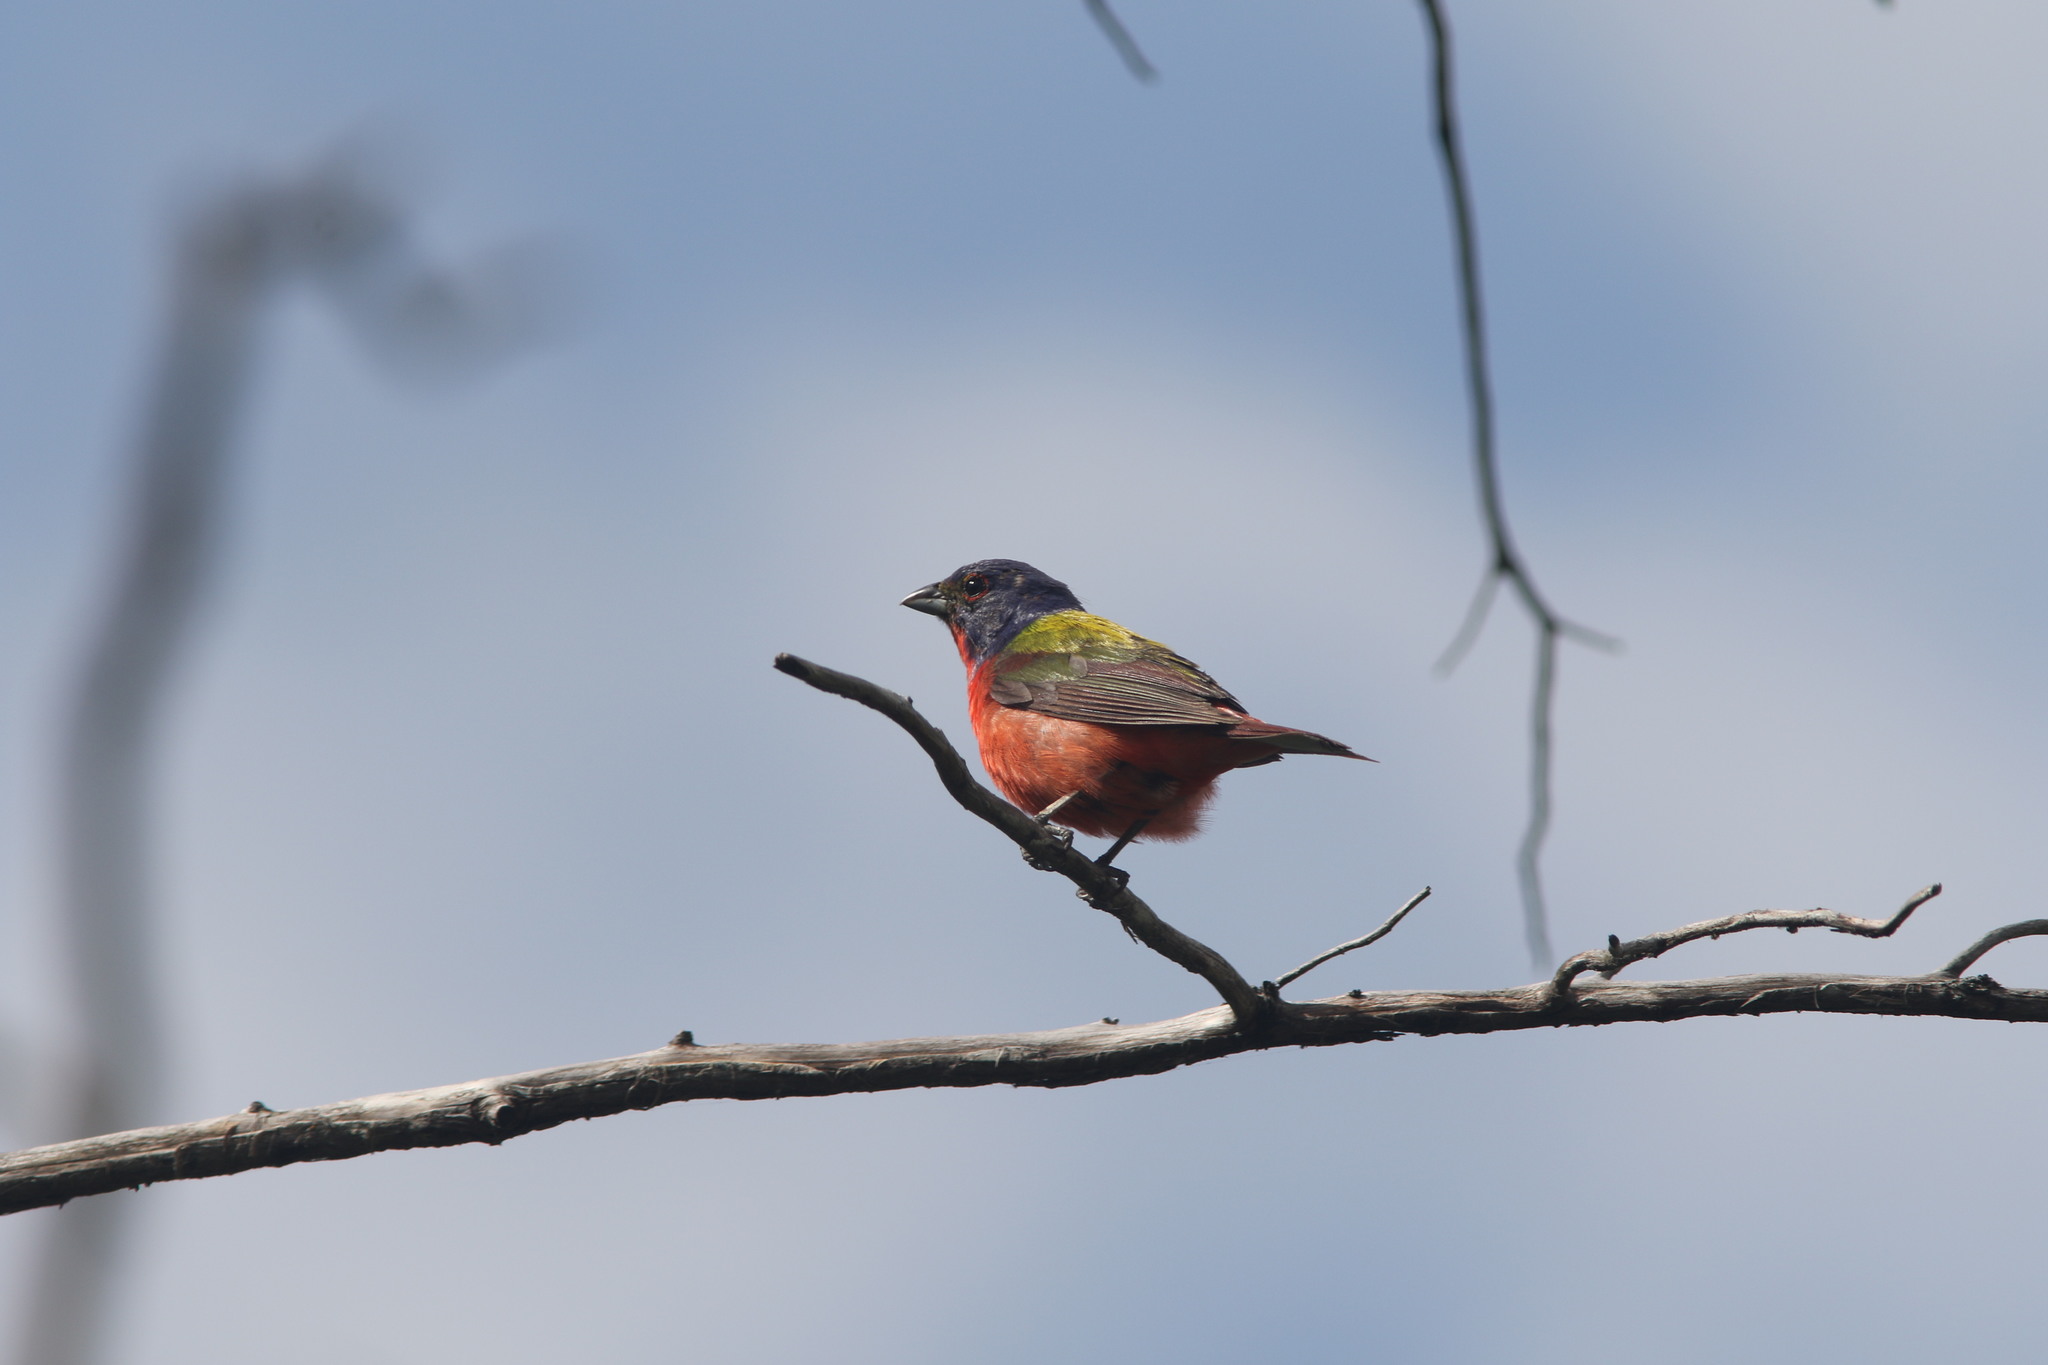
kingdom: Animalia
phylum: Chordata
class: Aves
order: Passeriformes
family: Cardinalidae
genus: Passerina
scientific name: Passerina ciris
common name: Painted bunting
